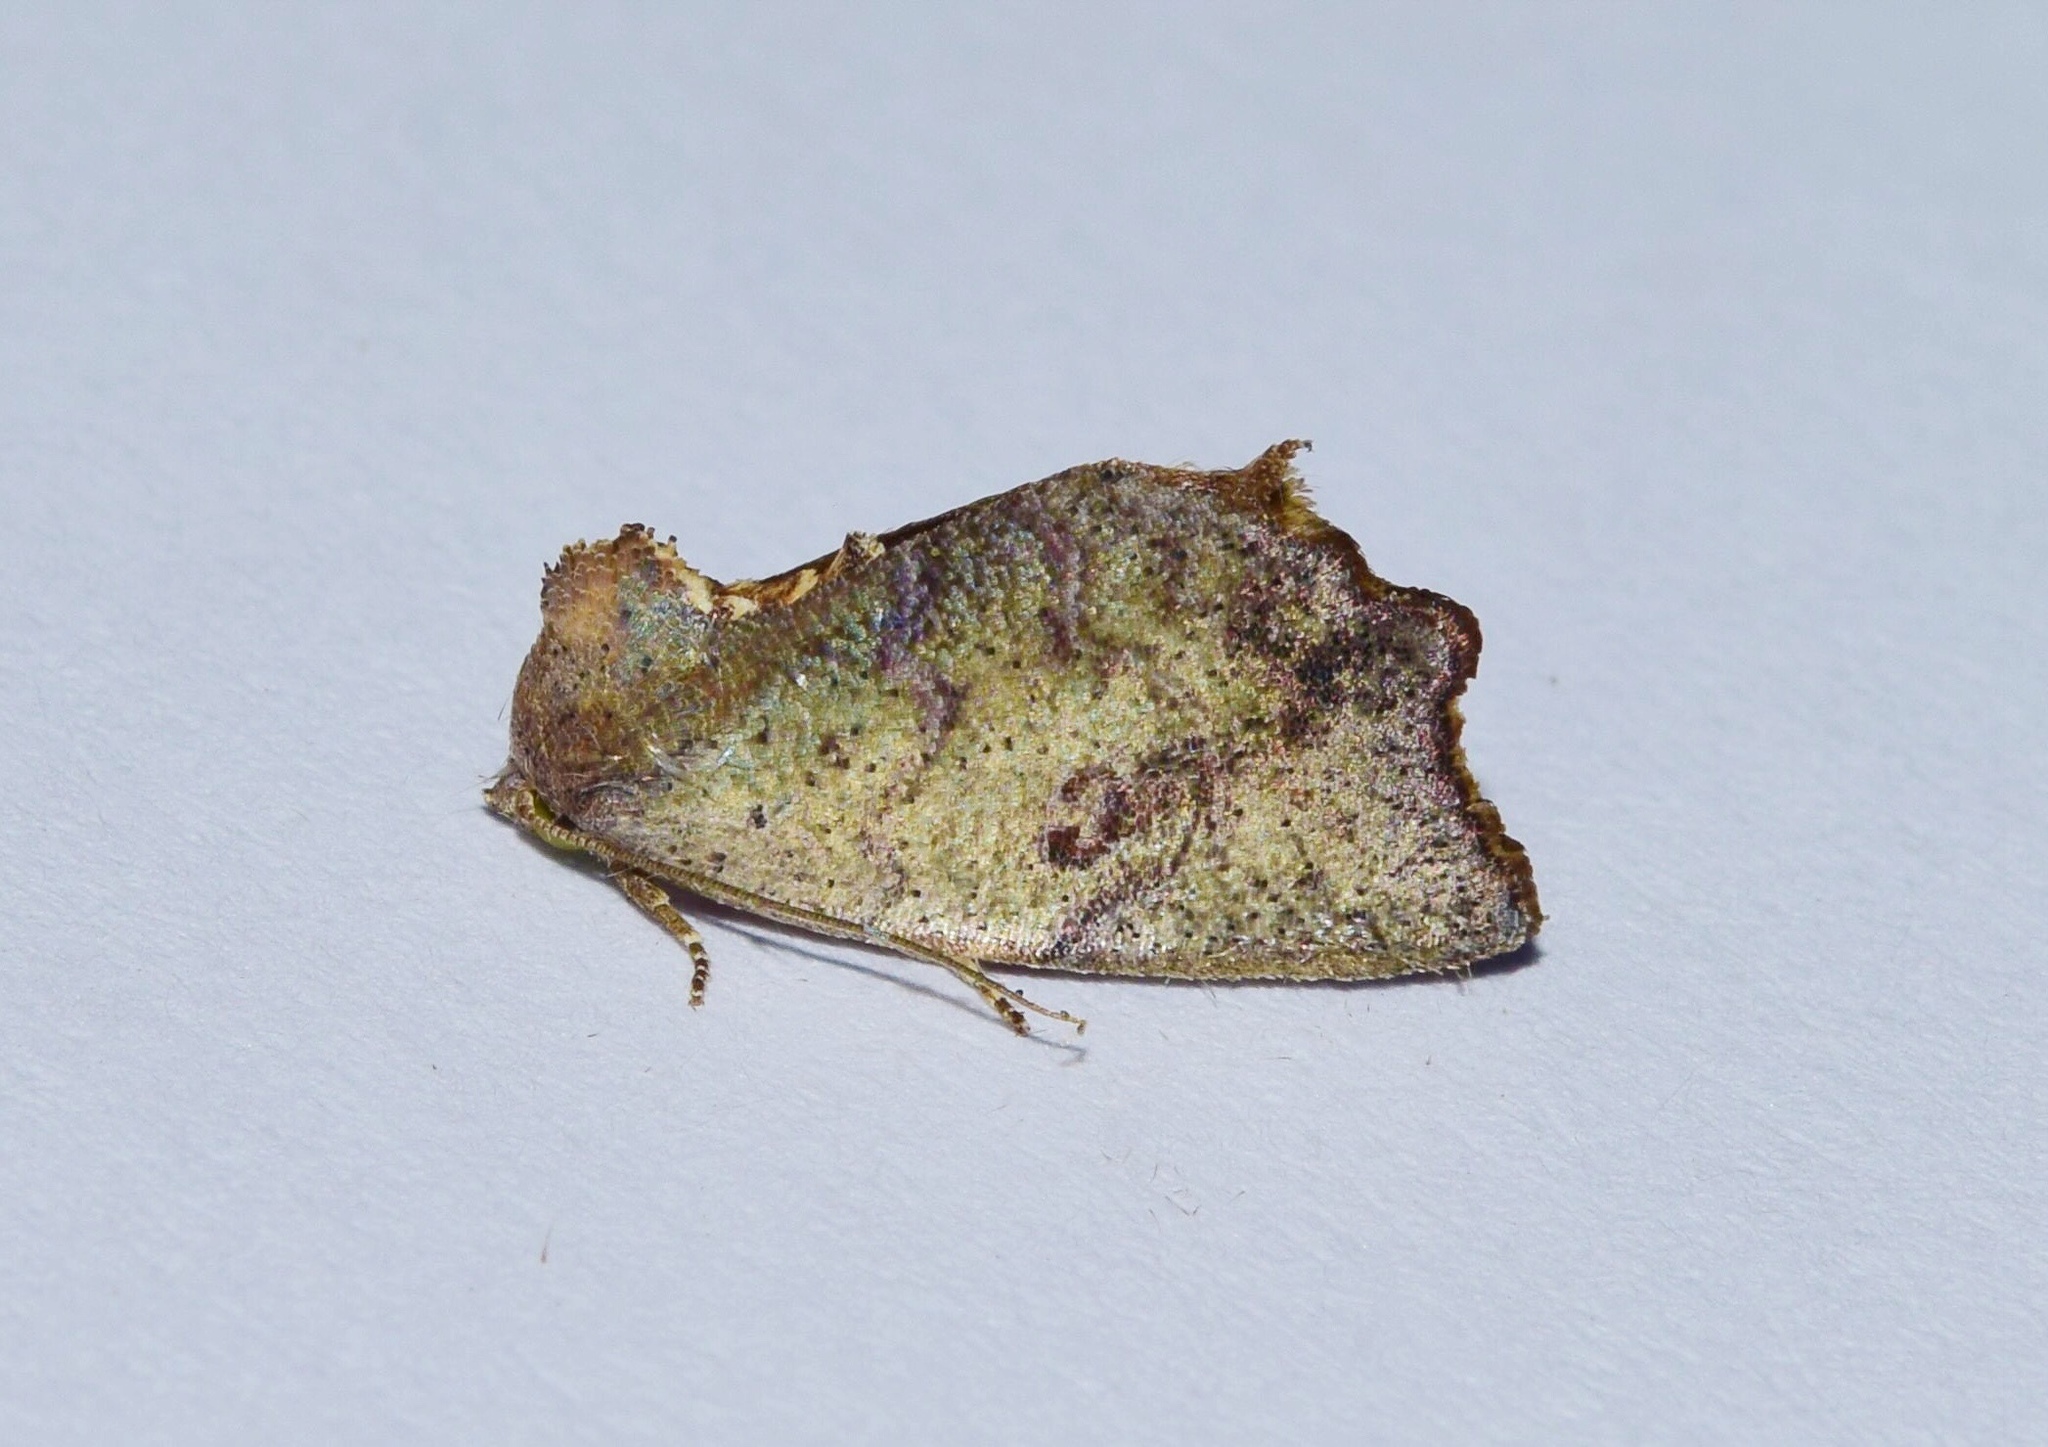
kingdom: Animalia
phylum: Arthropoda
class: Insecta
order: Lepidoptera
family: Nolidae
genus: Goniocalpe
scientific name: Goniocalpe heteromorpha
